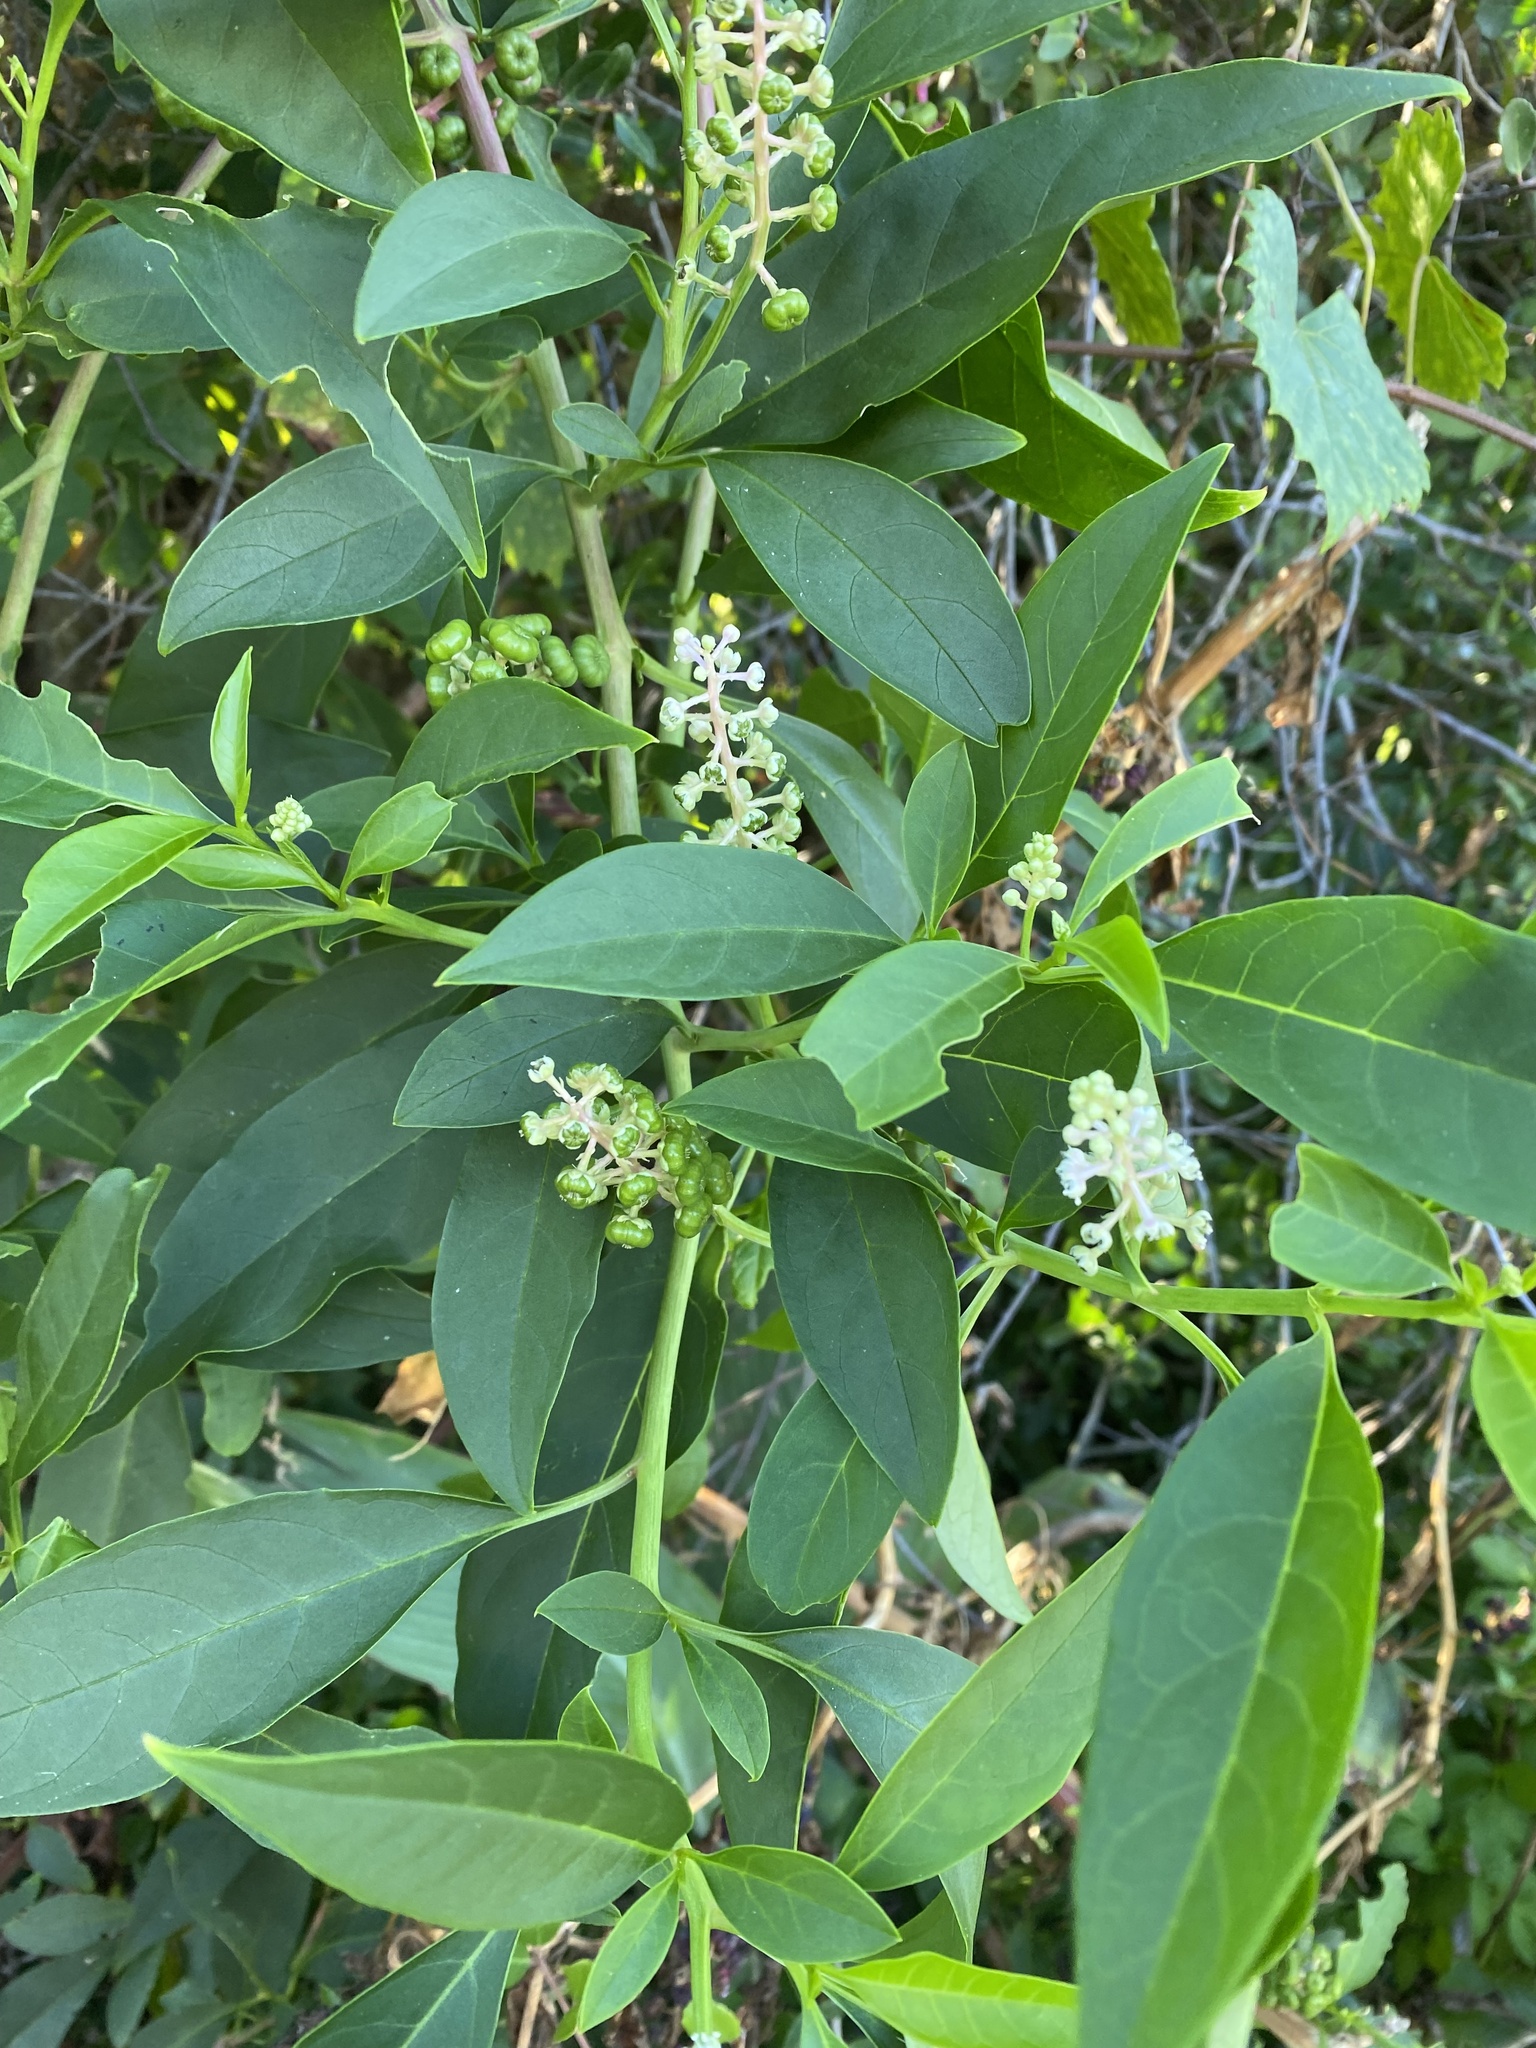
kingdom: Plantae
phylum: Tracheophyta
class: Magnoliopsida
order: Caryophyllales
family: Phytolaccaceae
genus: Phytolacca
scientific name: Phytolacca americana
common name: American pokeweed
